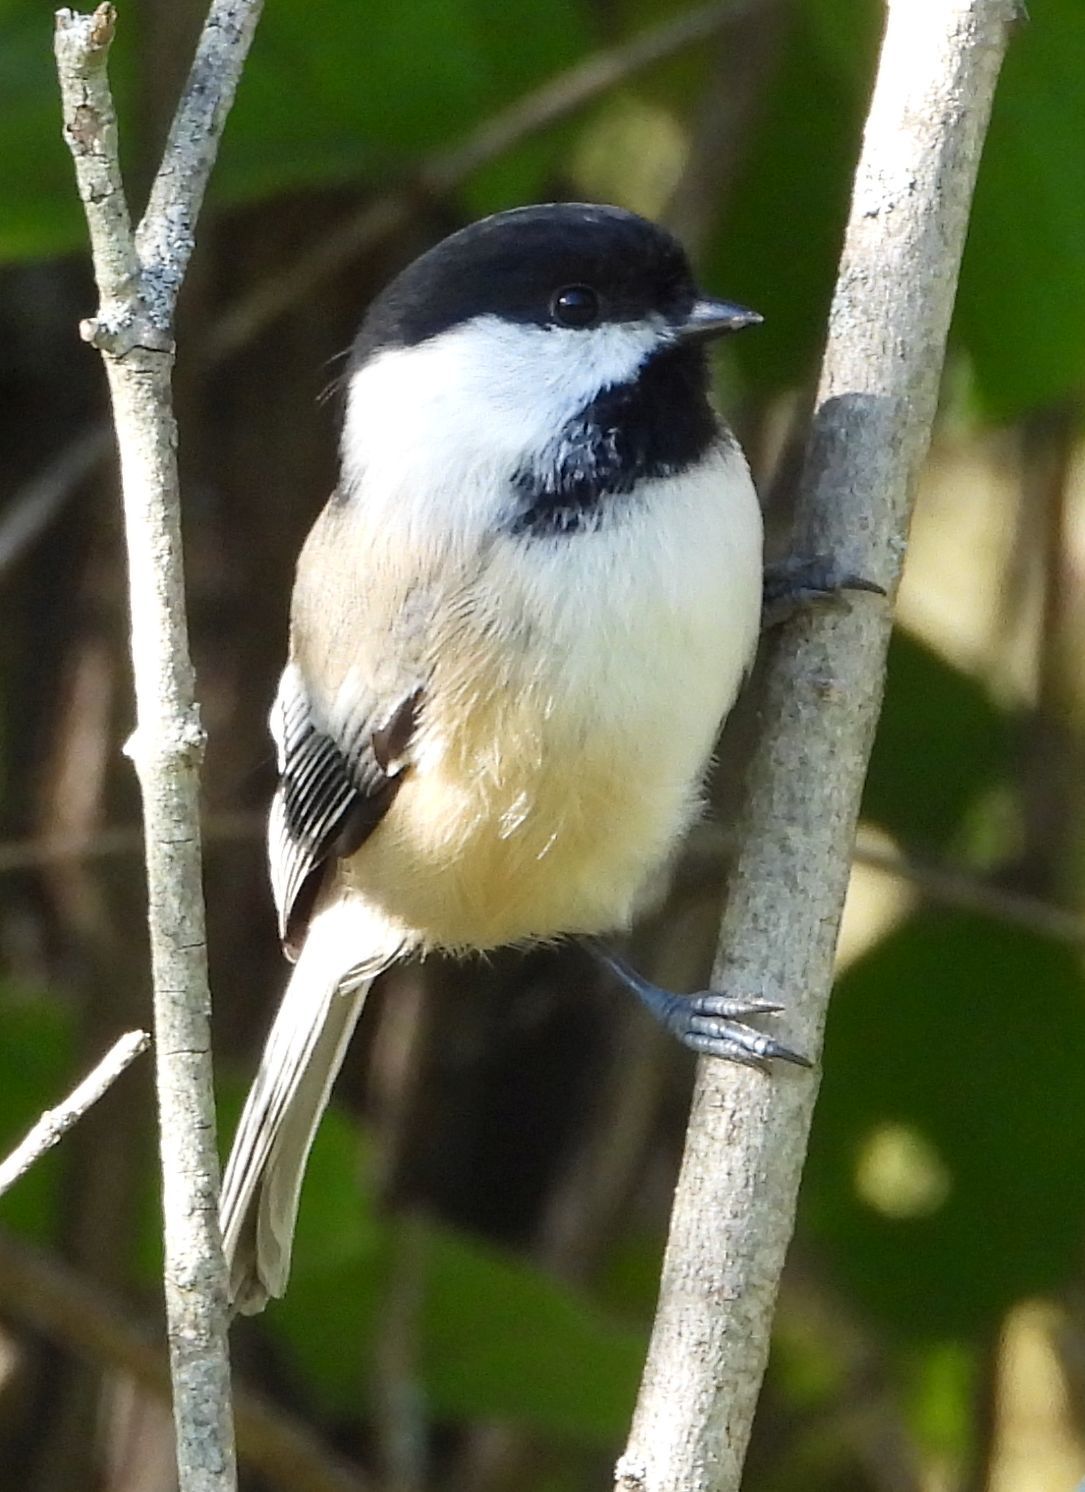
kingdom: Animalia
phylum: Chordata
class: Aves
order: Passeriformes
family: Paridae
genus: Poecile
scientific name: Poecile atricapillus
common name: Black-capped chickadee
